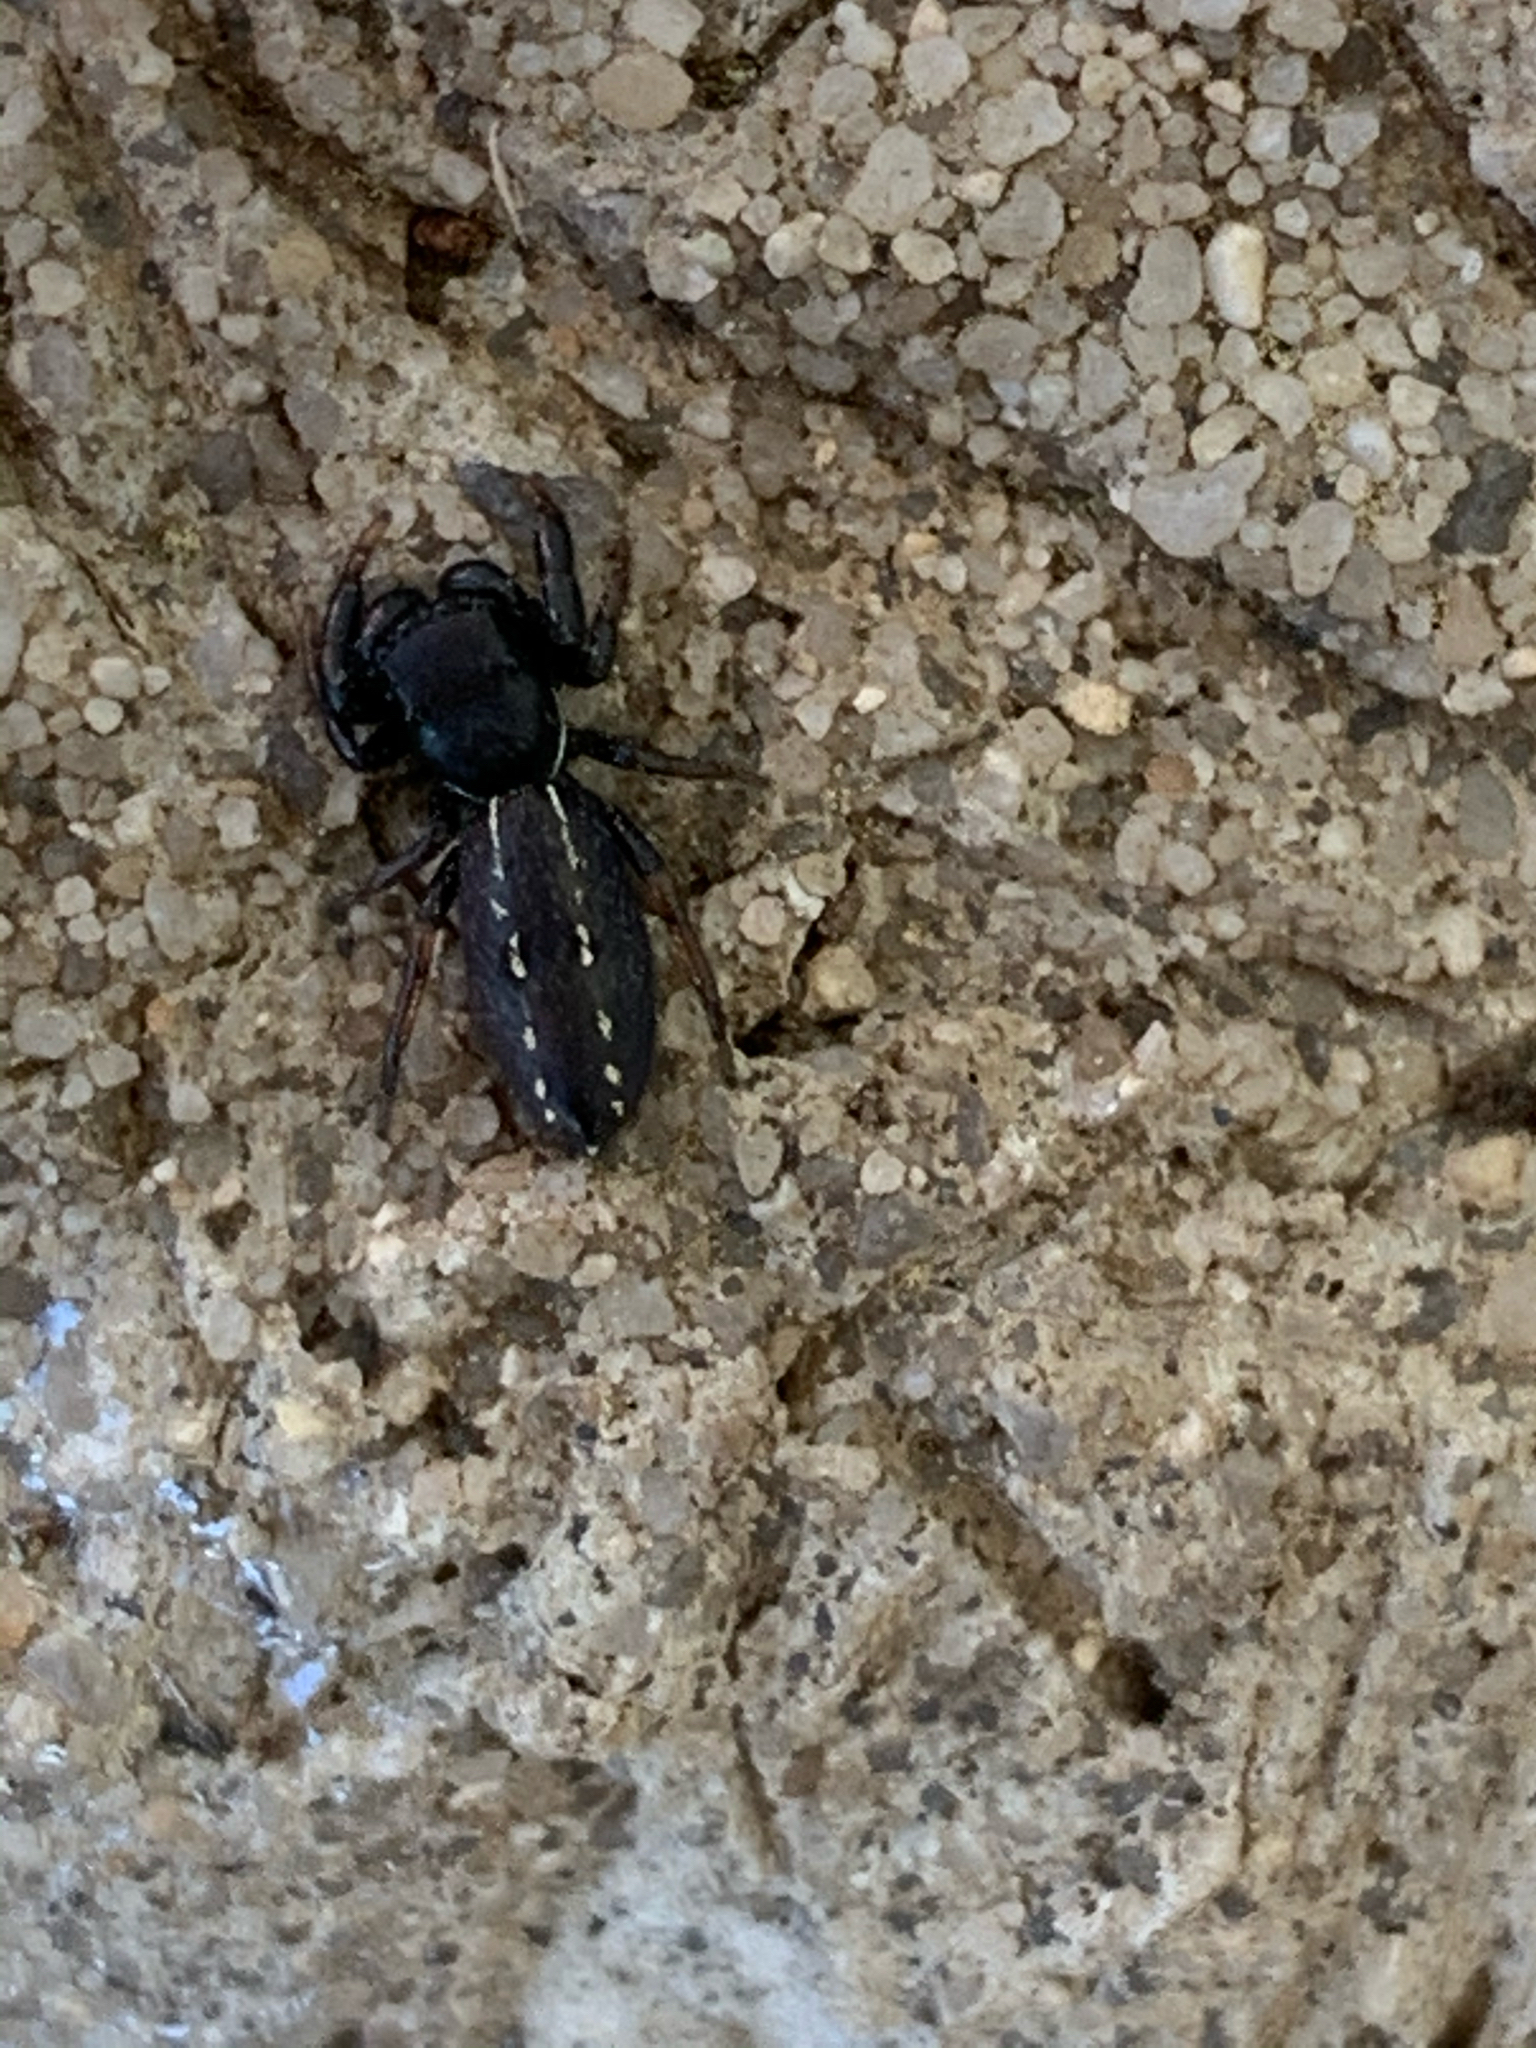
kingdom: Animalia
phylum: Arthropoda
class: Arachnida
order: Araneae
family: Salticidae
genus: Metacyrba
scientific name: Metacyrba taeniola
